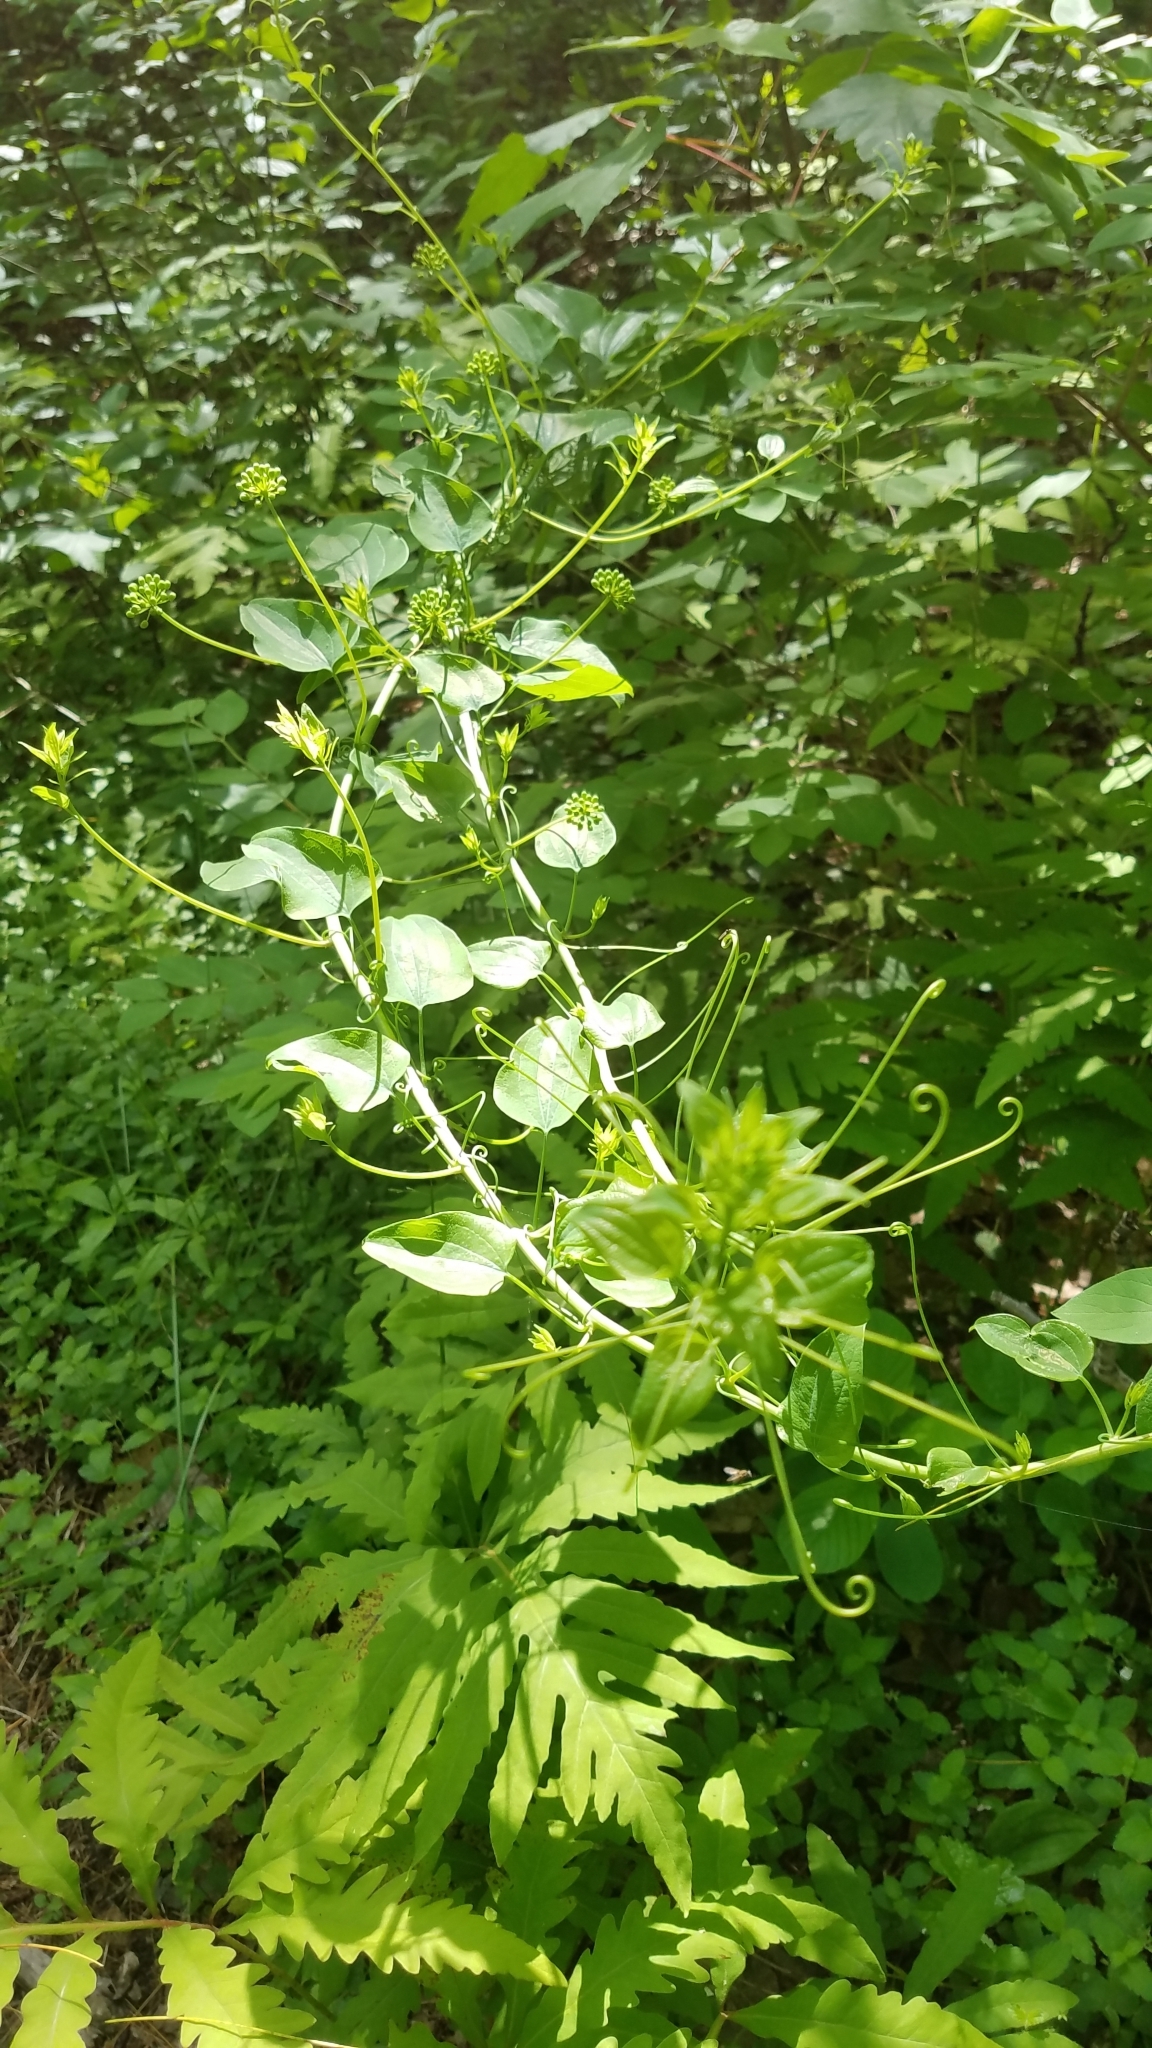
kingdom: Plantae
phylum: Tracheophyta
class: Liliopsida
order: Liliales
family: Smilacaceae
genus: Smilax
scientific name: Smilax herbacea
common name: Jacob's-ladder
